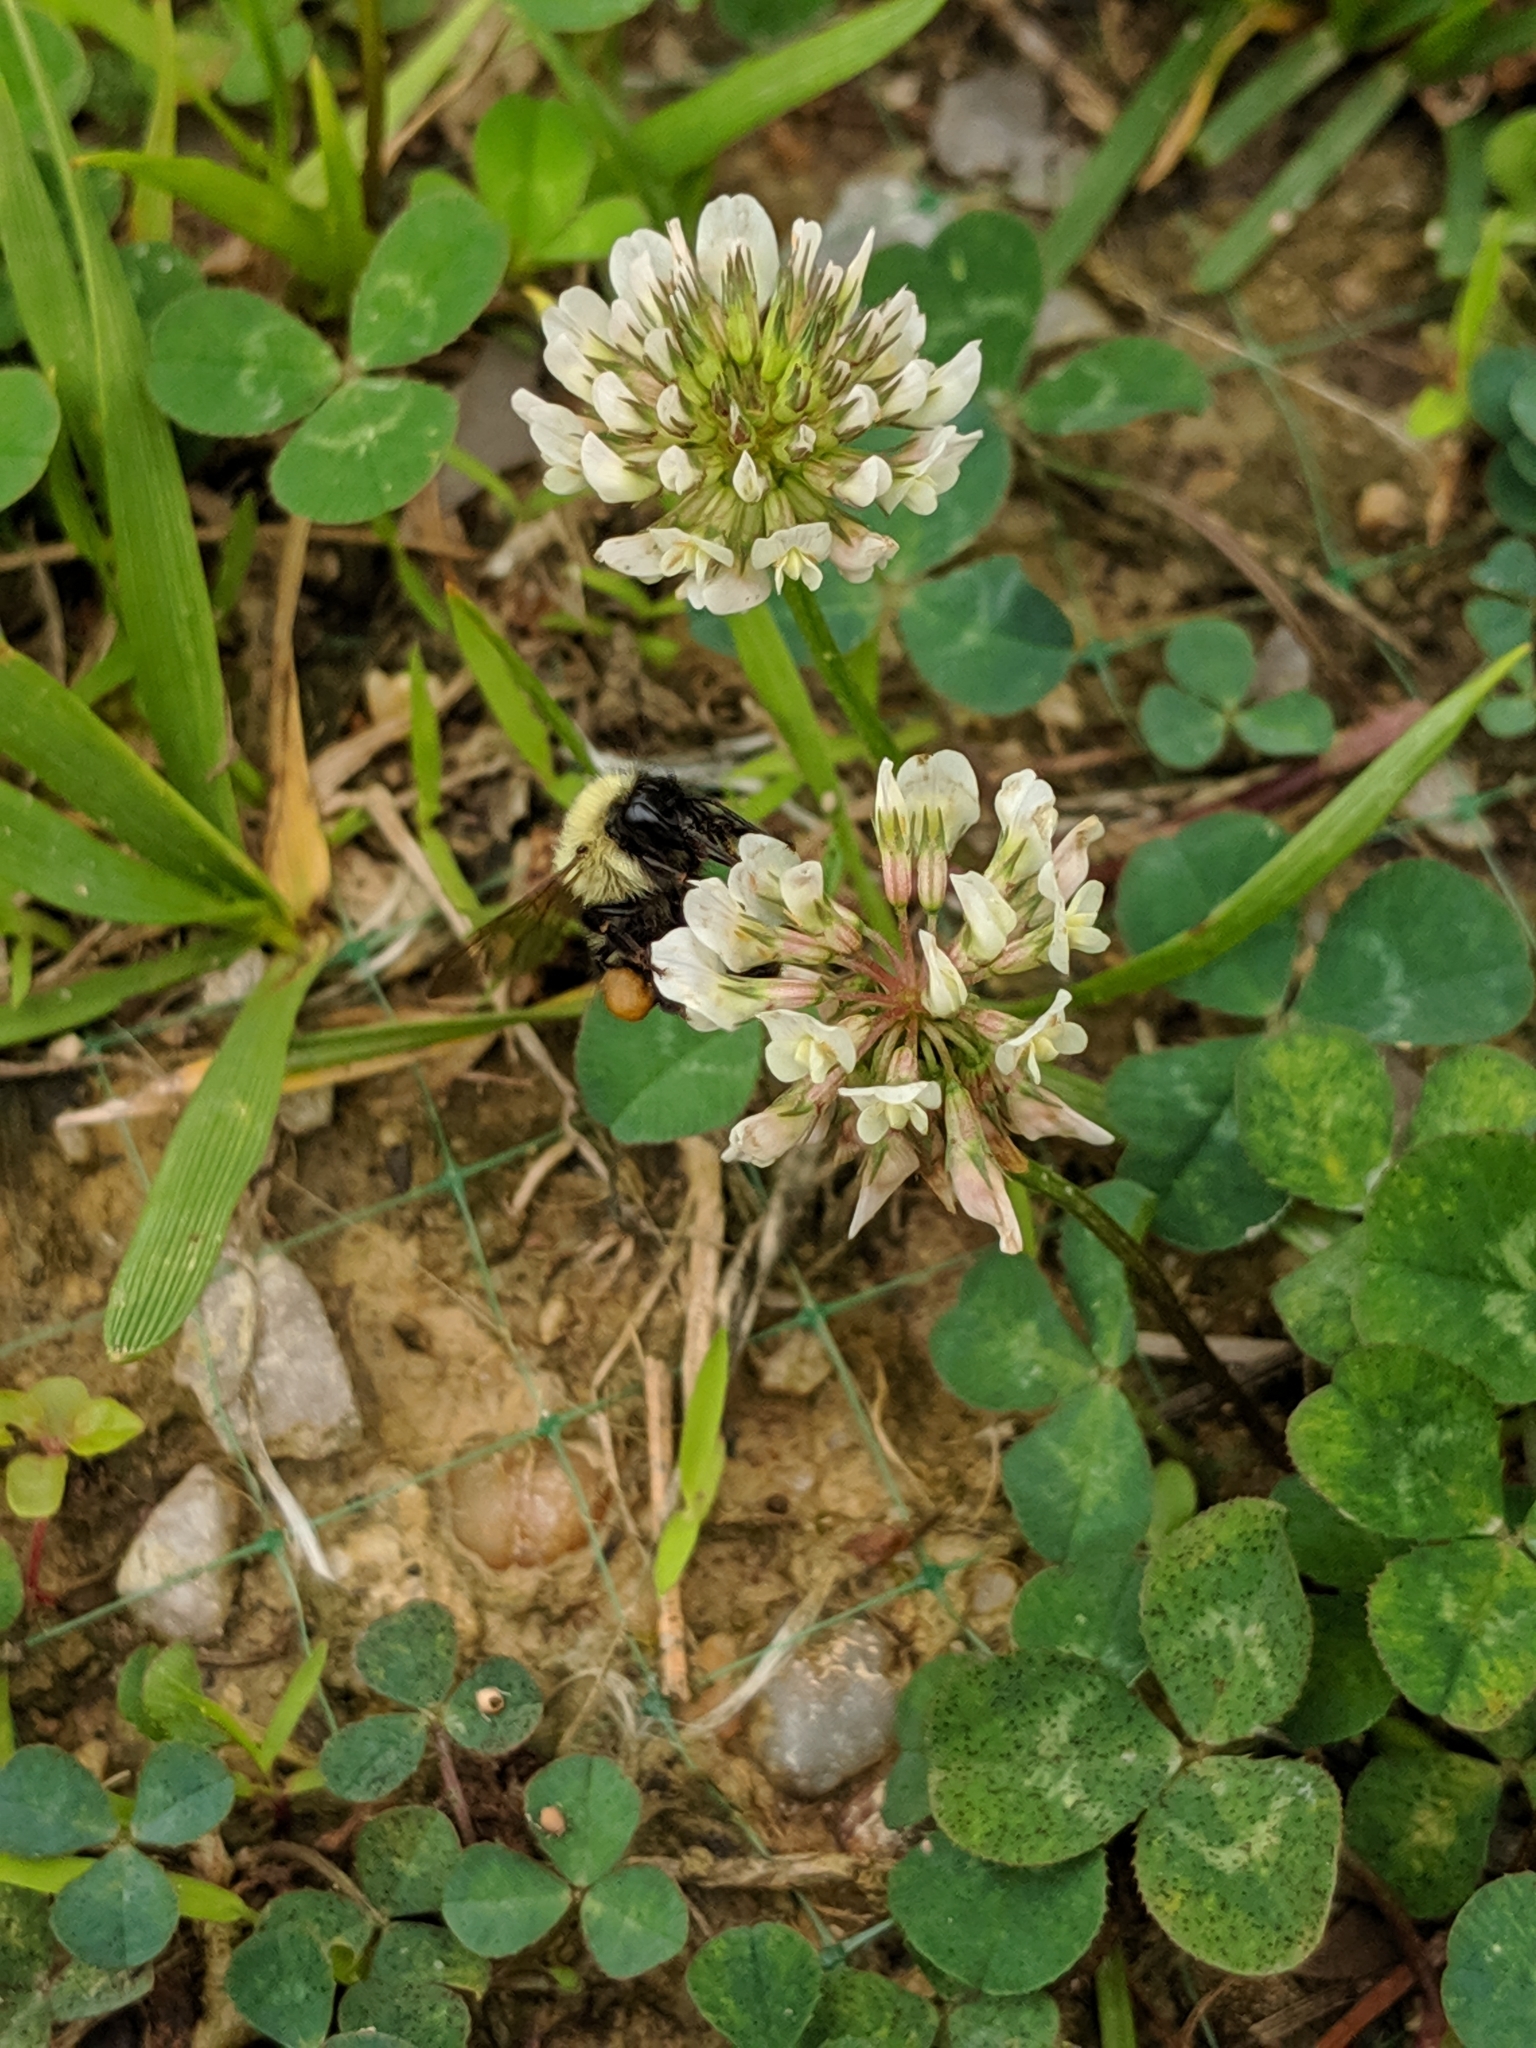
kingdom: Animalia
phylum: Arthropoda
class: Insecta
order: Hymenoptera
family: Apidae
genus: Bombus
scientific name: Bombus bimaculatus
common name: Two-spotted bumble bee
